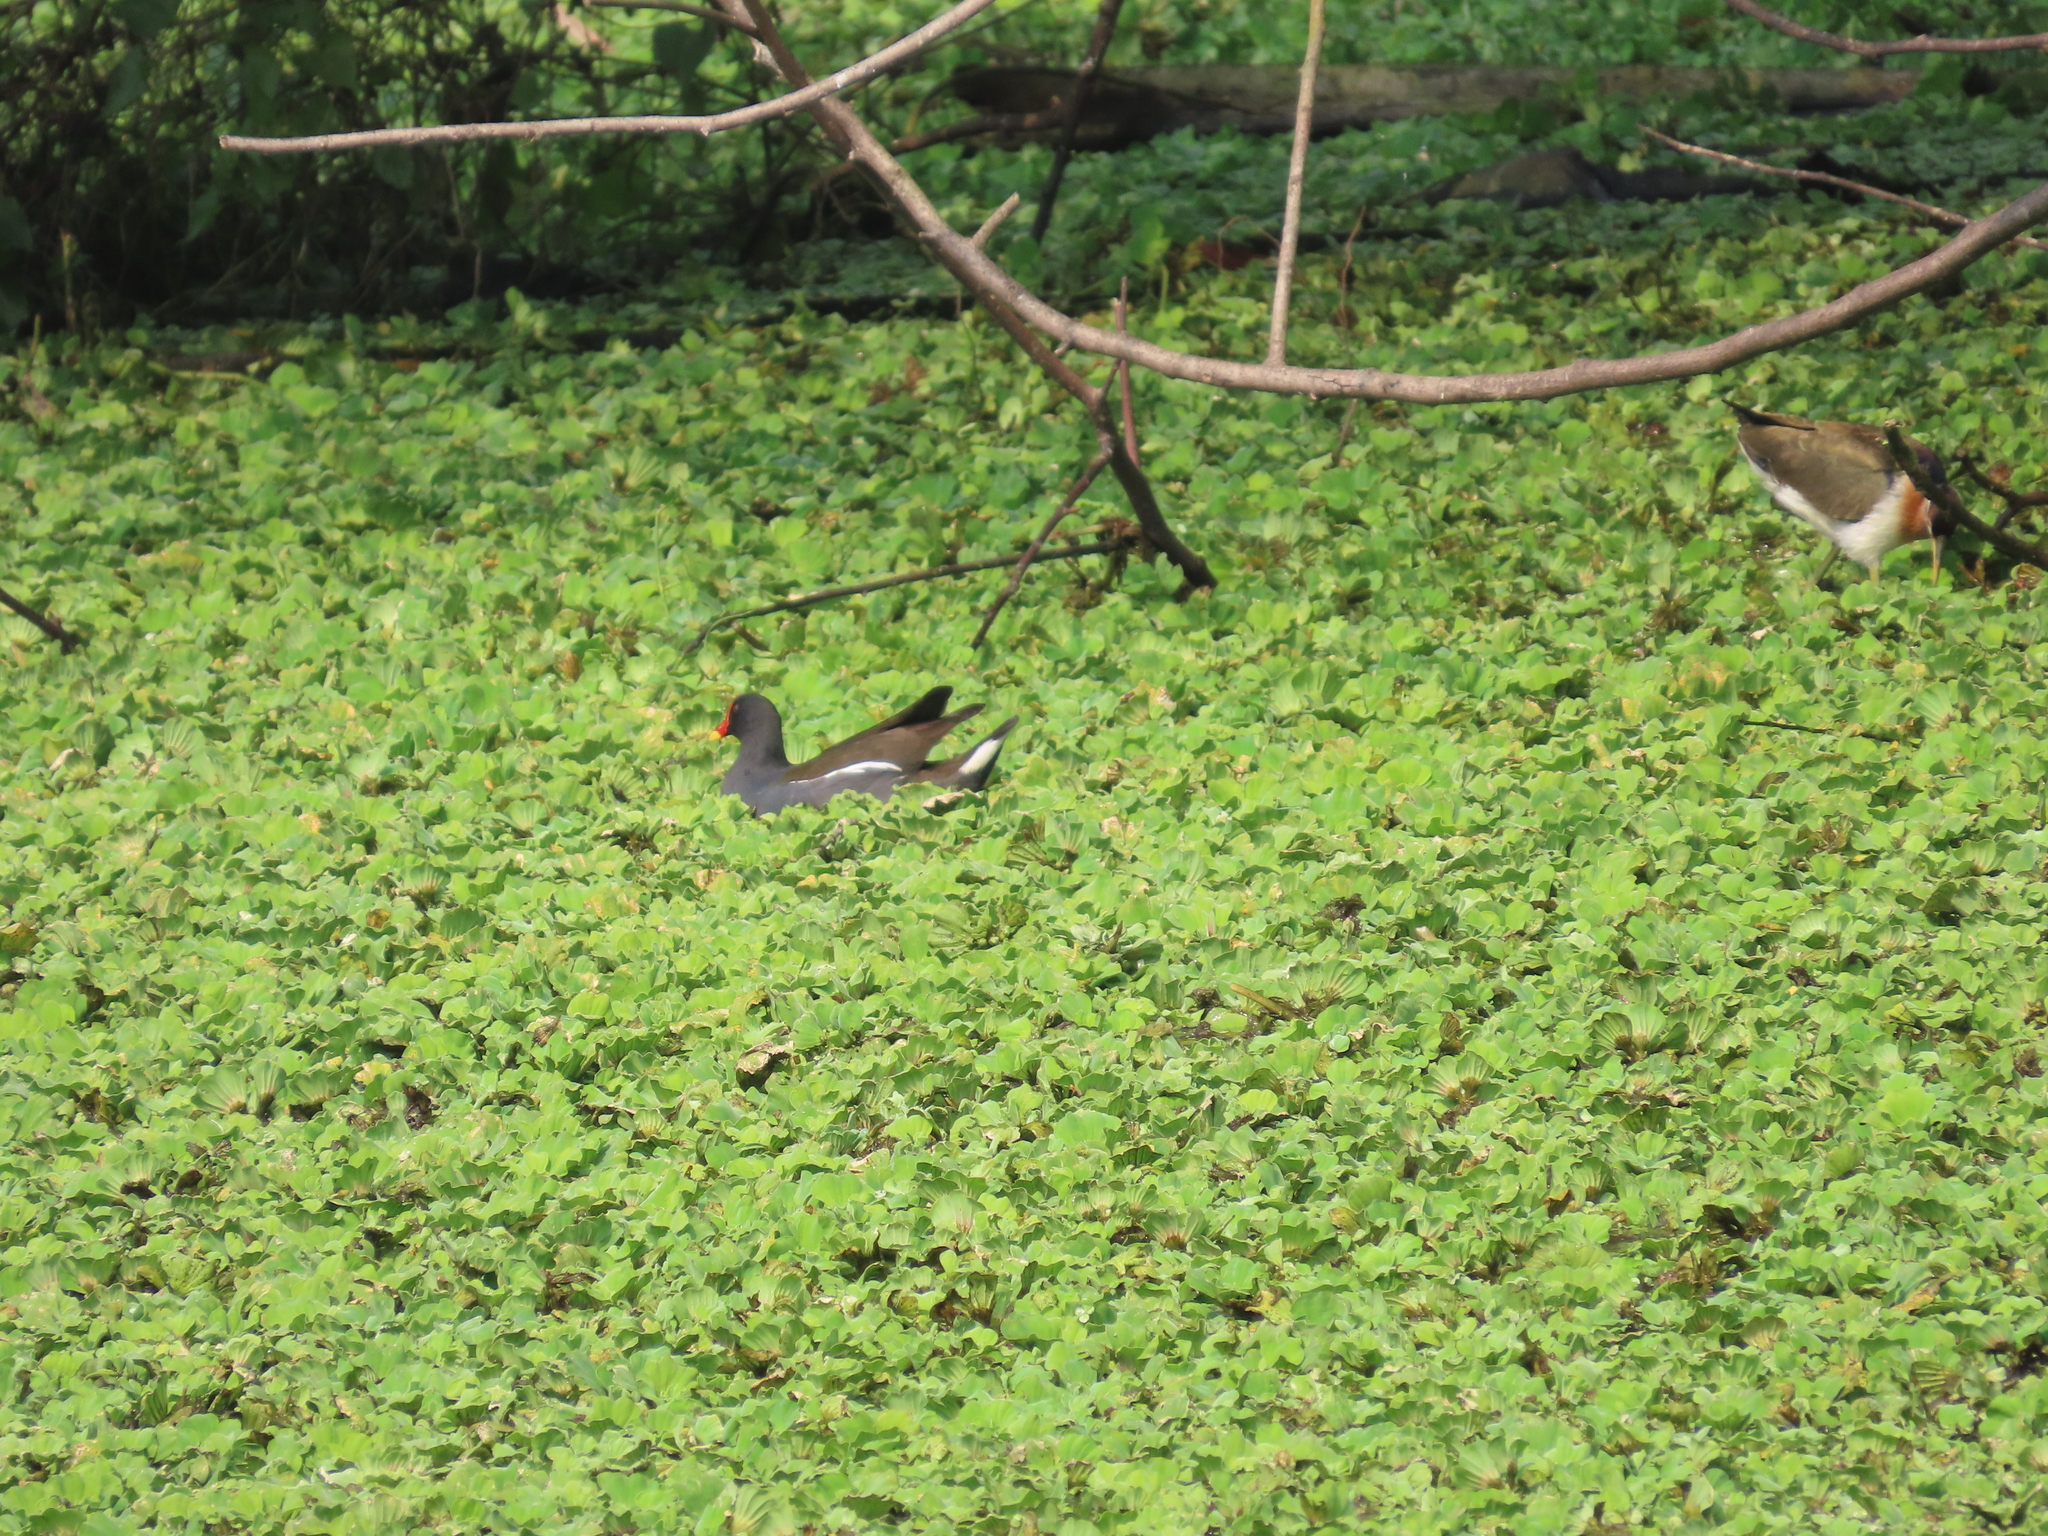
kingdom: Animalia
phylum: Chordata
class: Aves
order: Charadriiformes
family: Jacanidae
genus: Metopidius
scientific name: Metopidius indicus
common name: Bronze-winged jacana
